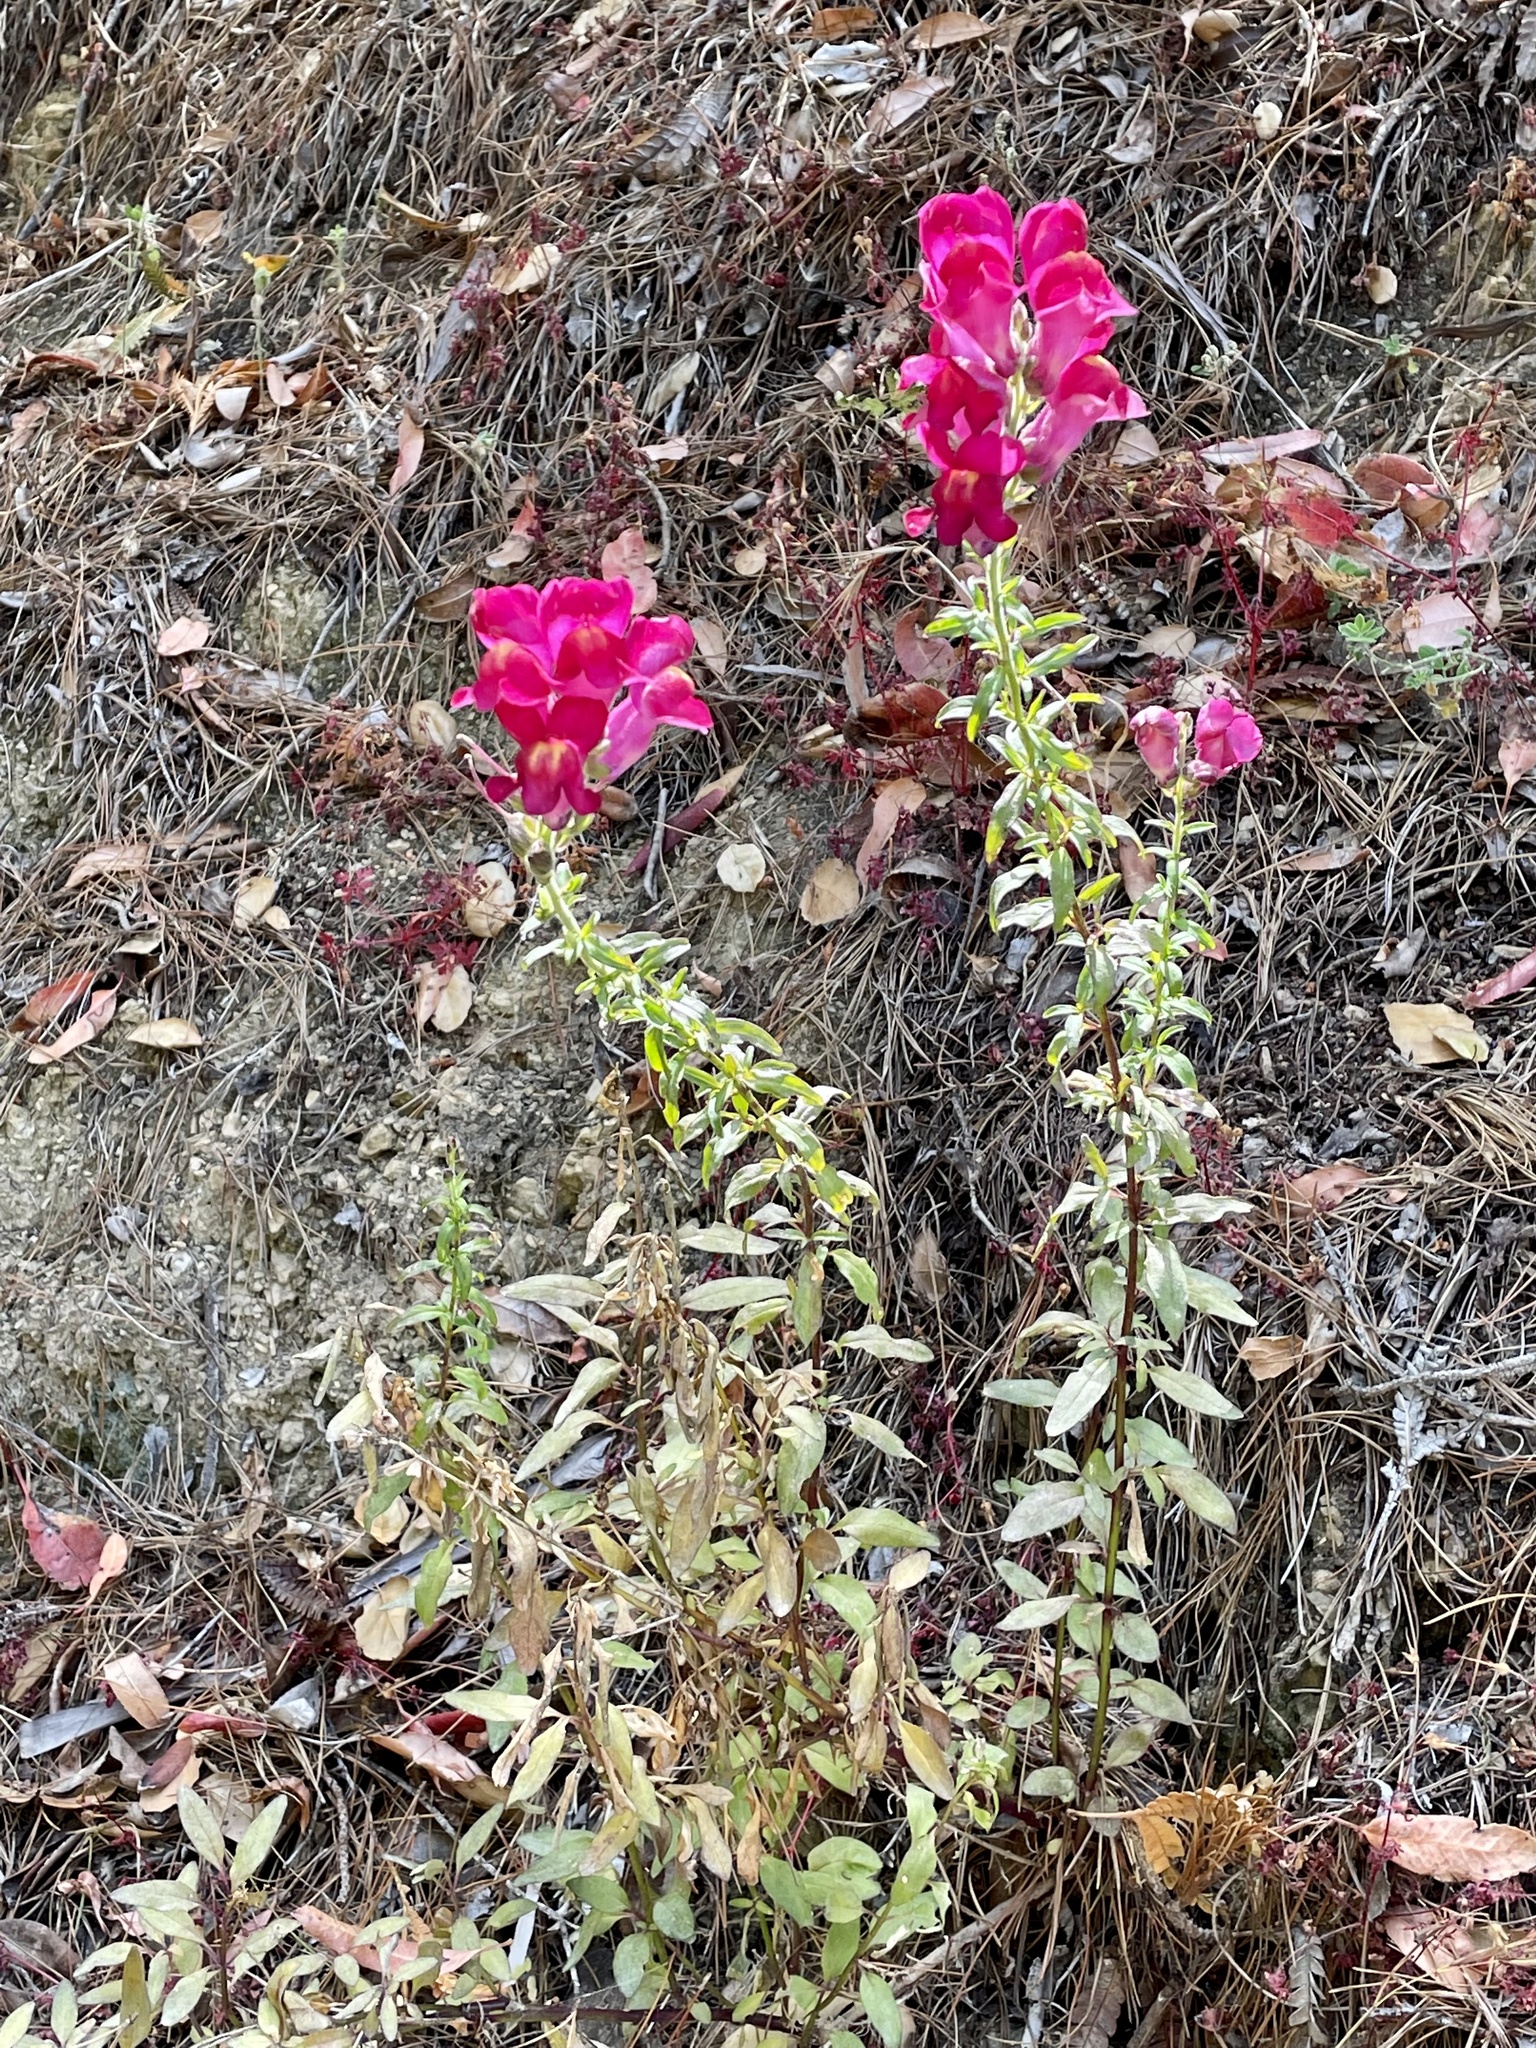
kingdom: Plantae
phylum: Tracheophyta
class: Magnoliopsida
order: Lamiales
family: Plantaginaceae
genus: Antirrhinum
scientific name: Antirrhinum majus
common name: Snapdragon
